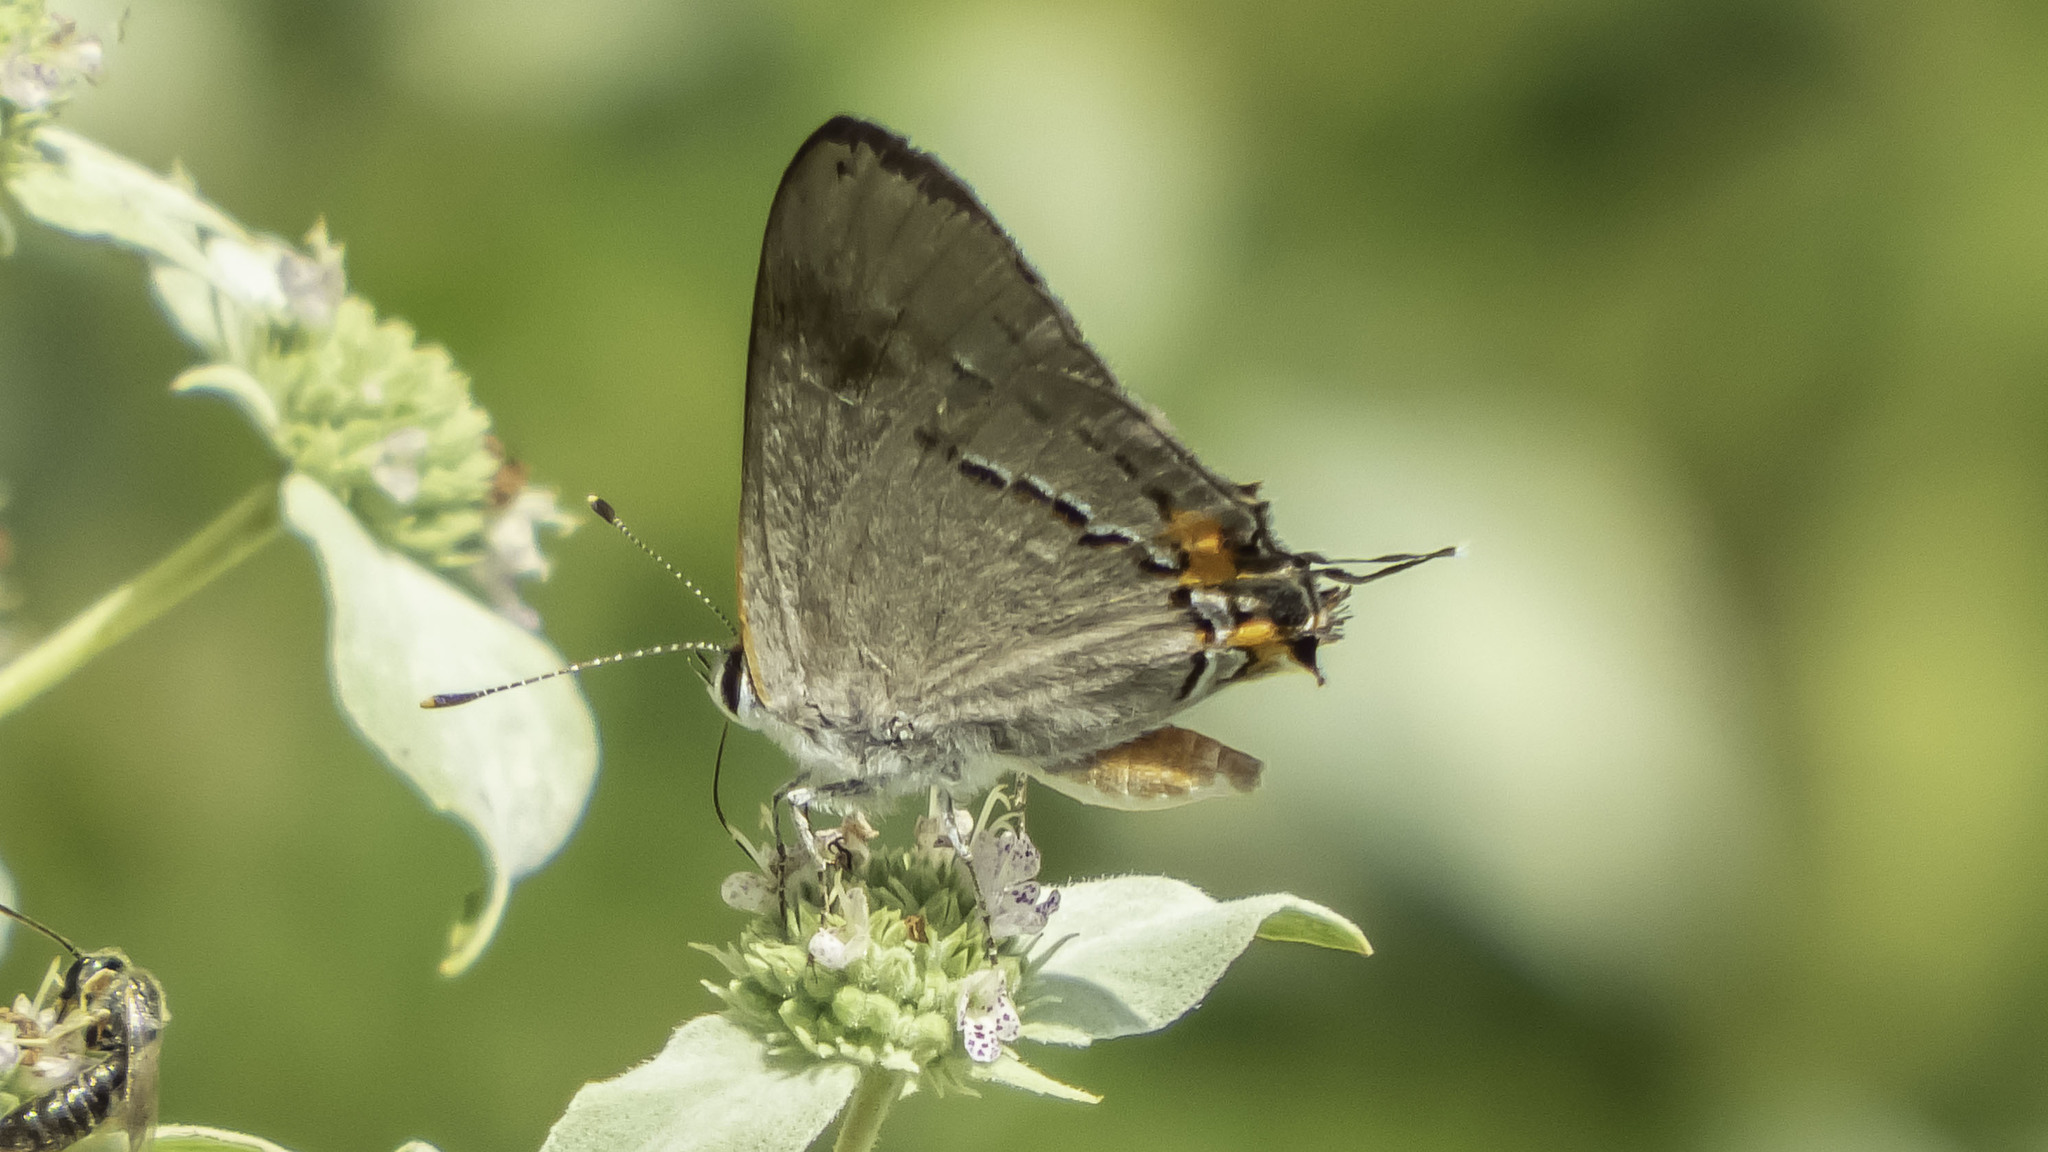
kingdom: Animalia
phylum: Arthropoda
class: Insecta
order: Lepidoptera
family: Lycaenidae
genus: Strymon
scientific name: Strymon melinus
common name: Gray hairstreak
